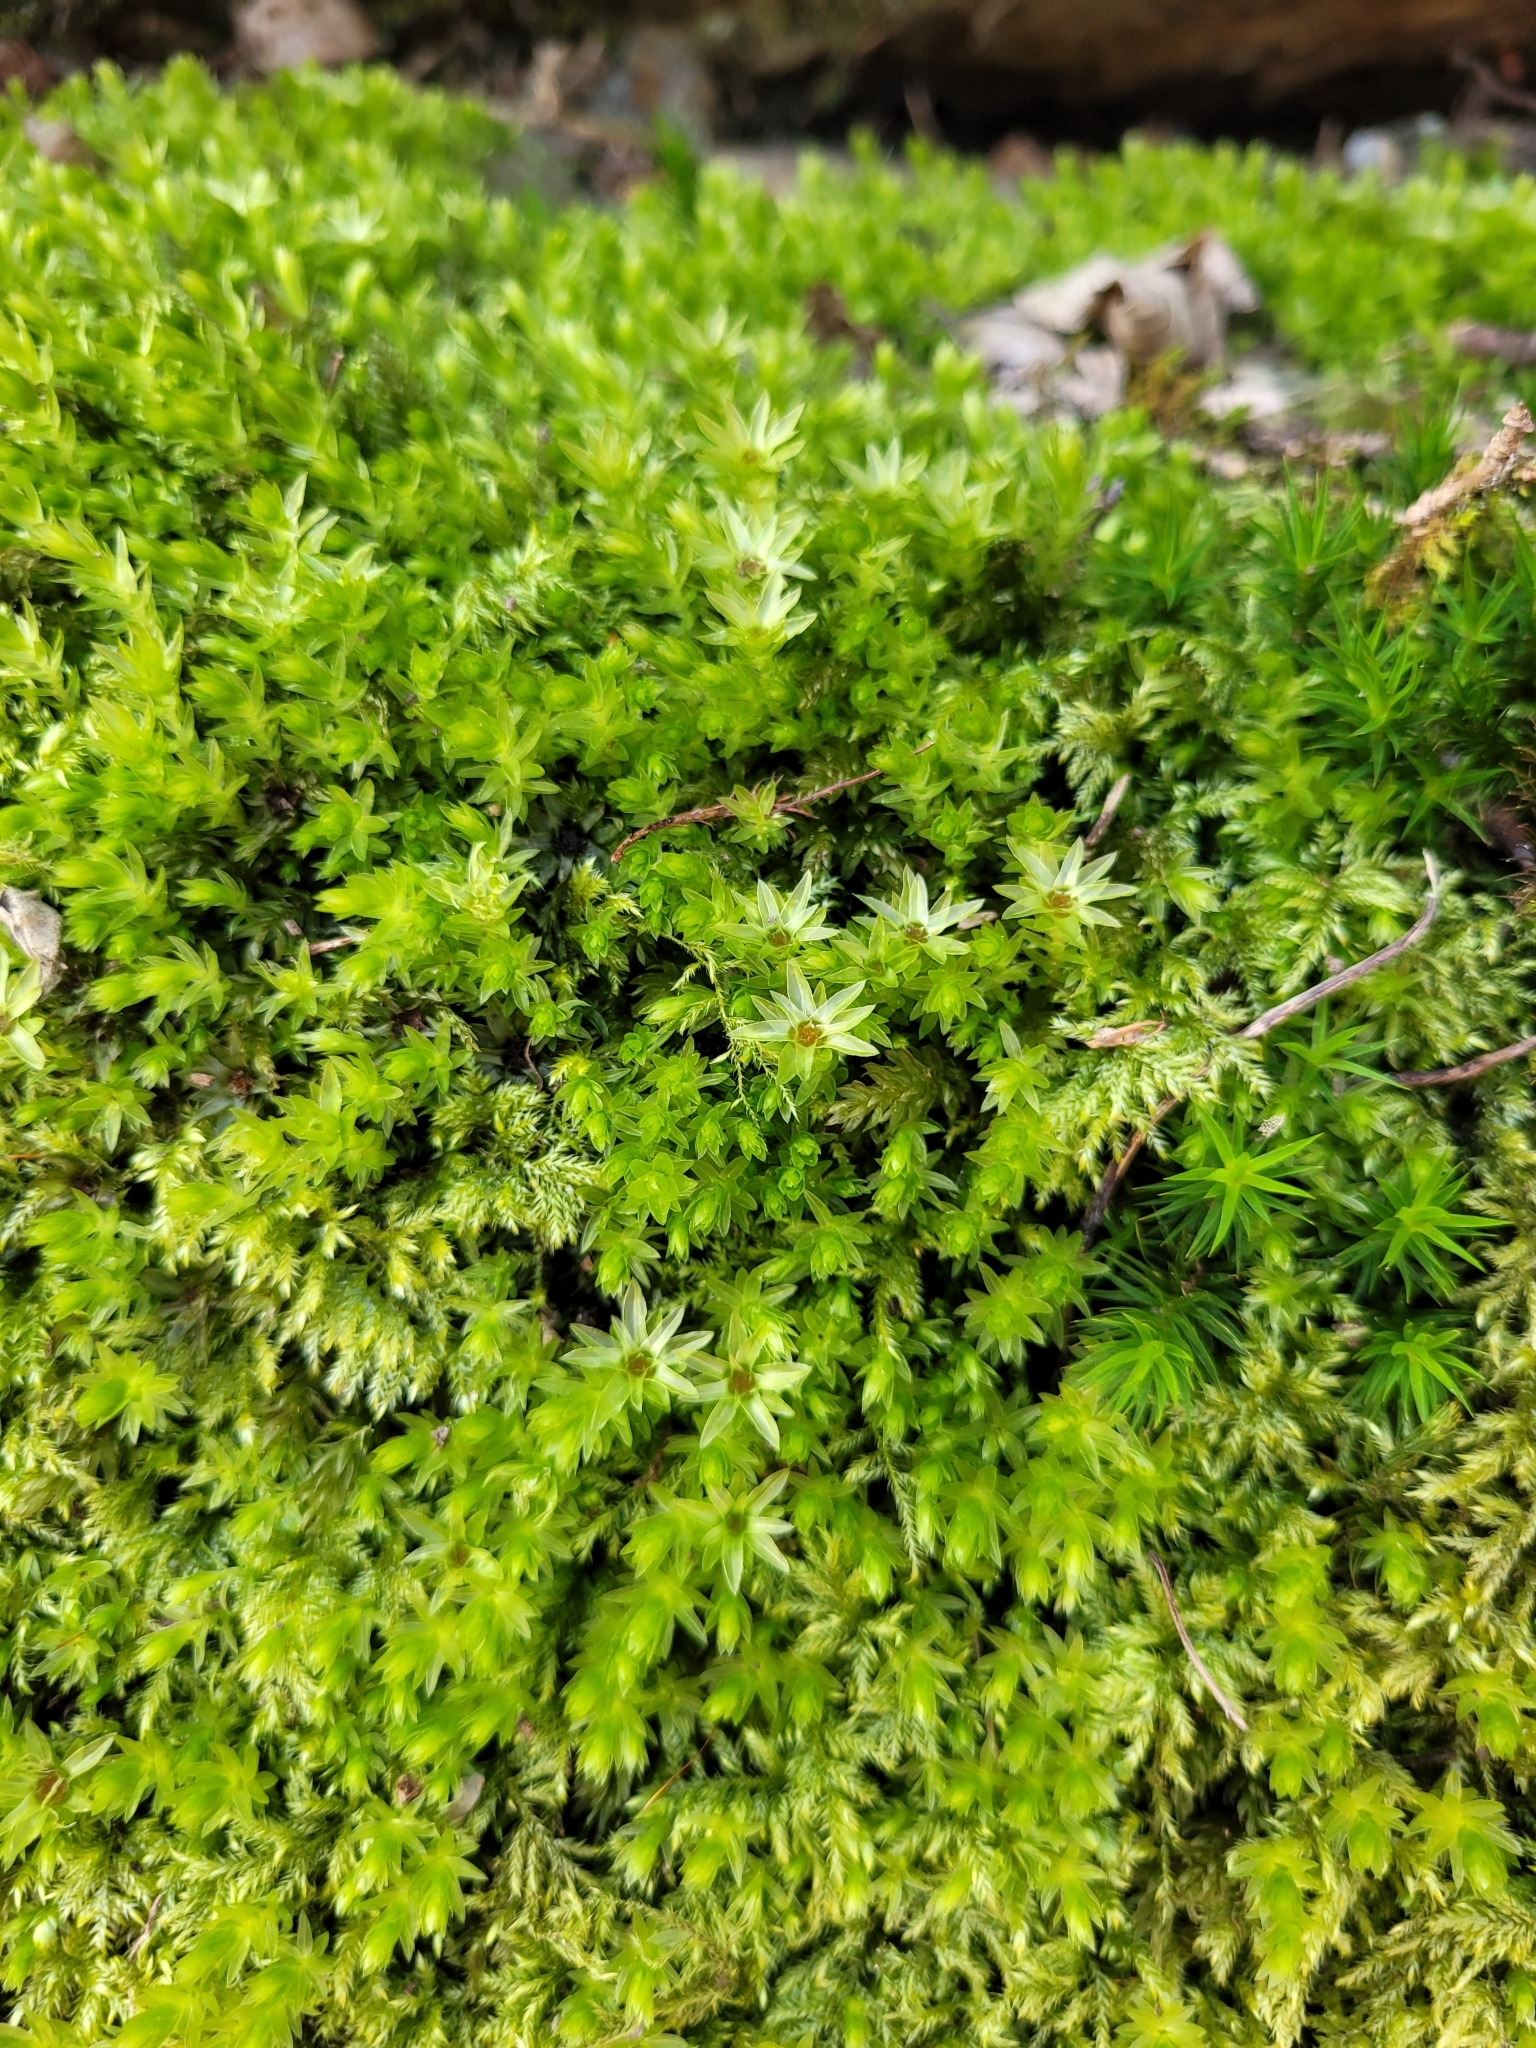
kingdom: Plantae
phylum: Bryophyta
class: Bryopsida
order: Bryales
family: Mniaceae
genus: Mnium
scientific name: Mnium hornum
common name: Swan's-neck leafy moss
